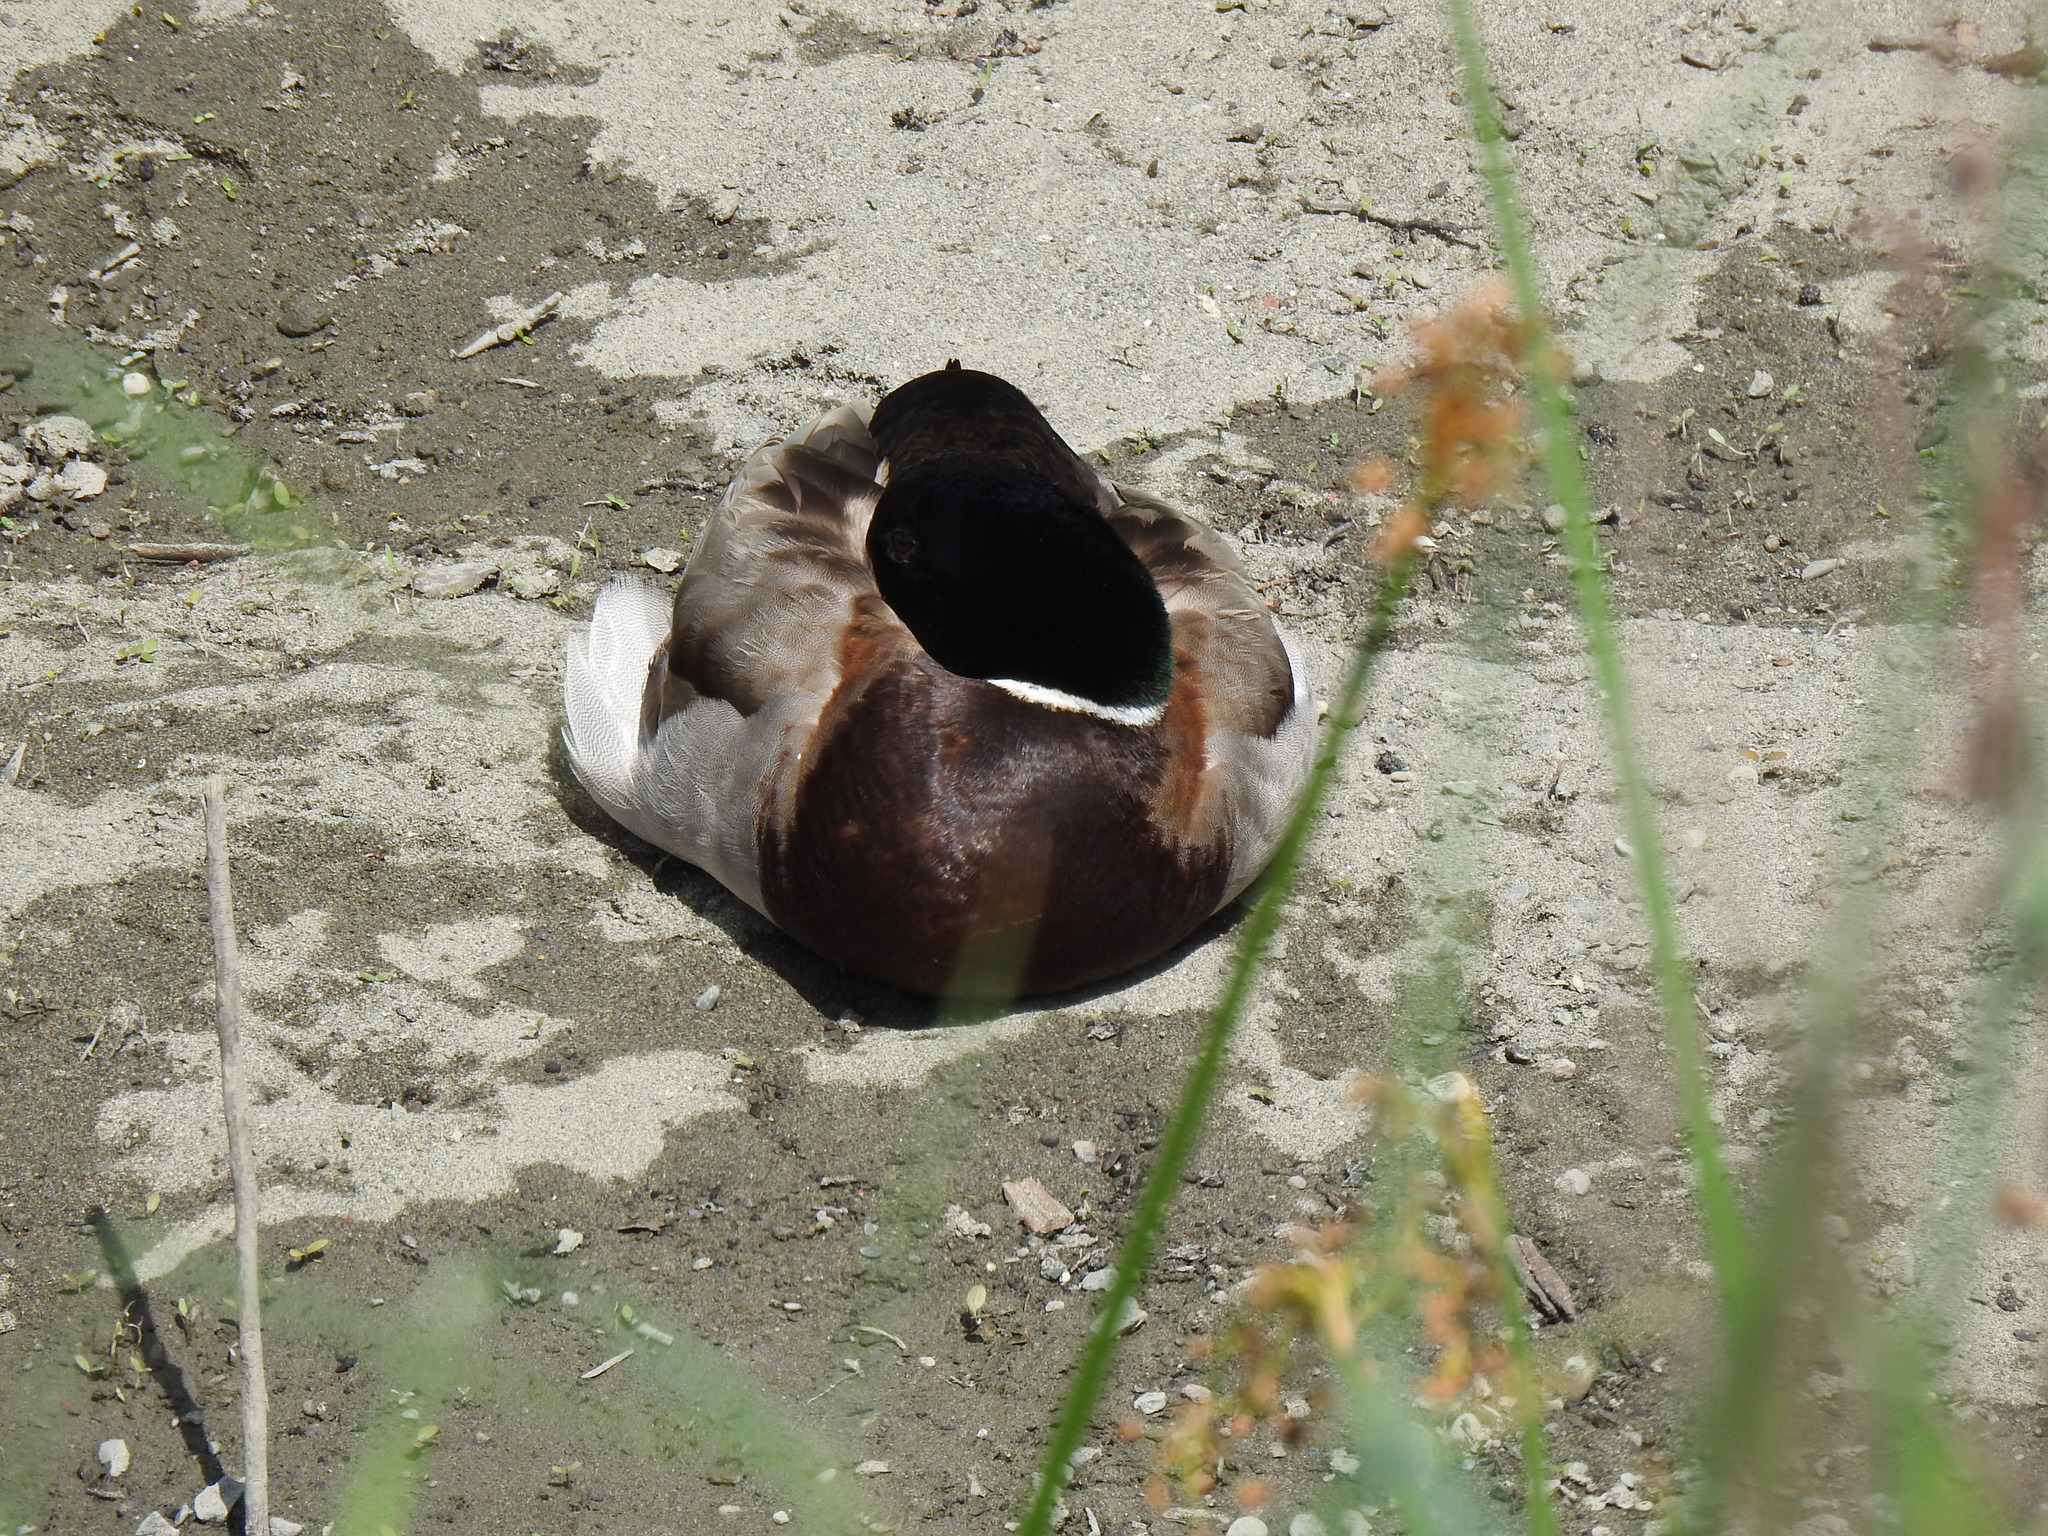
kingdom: Animalia
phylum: Chordata
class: Aves
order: Anseriformes
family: Anatidae
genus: Anas
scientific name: Anas platyrhynchos
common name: Mallard
